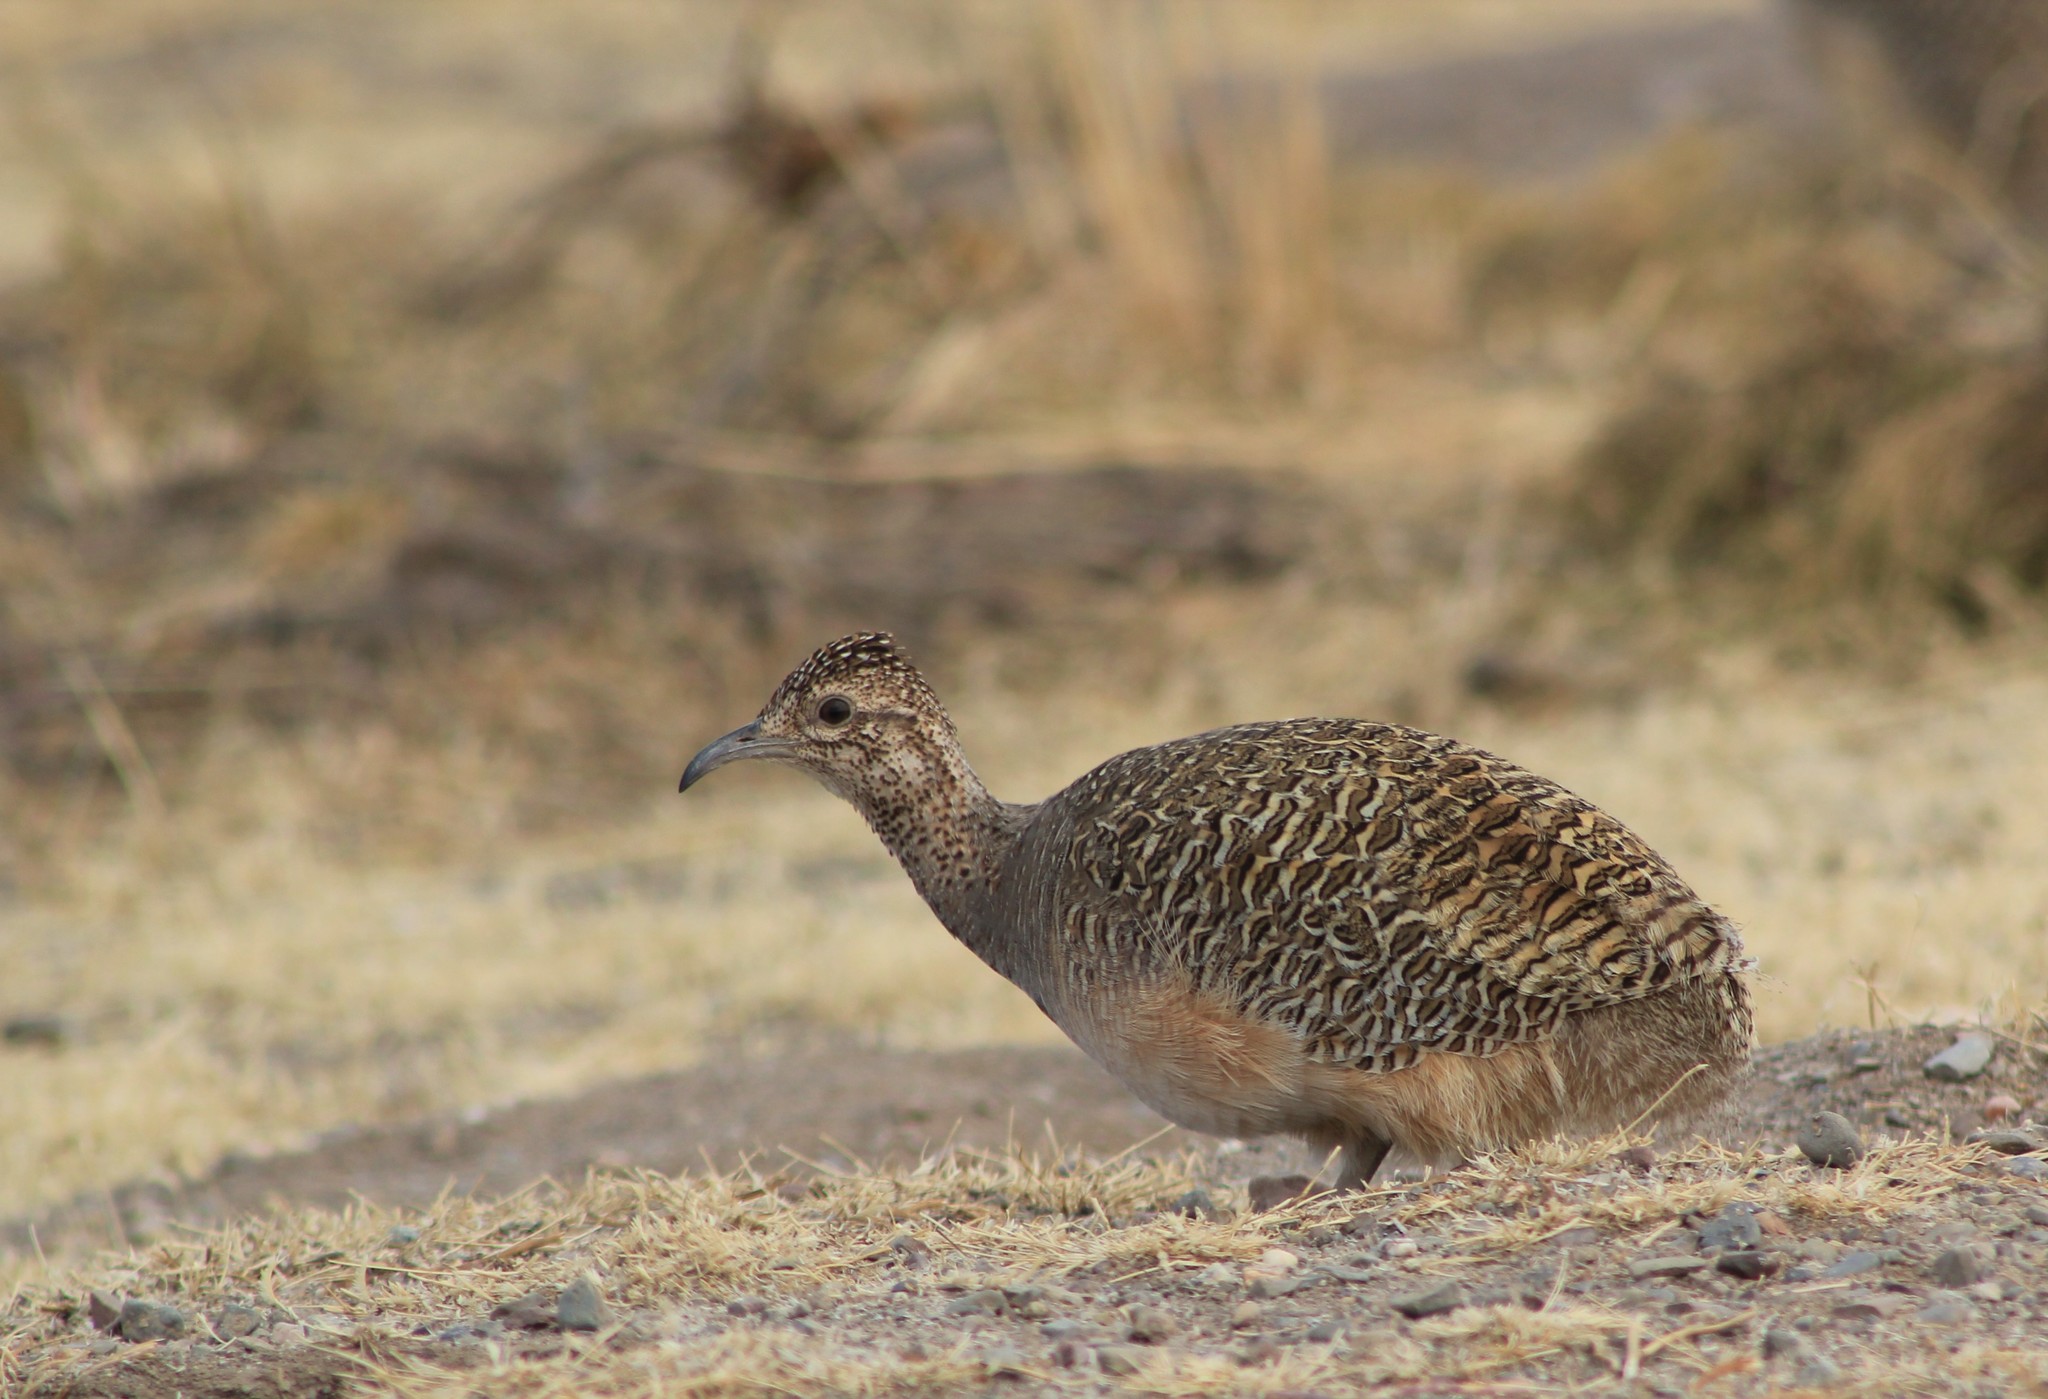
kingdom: Animalia
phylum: Chordata
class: Aves
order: Tinamiformes
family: Tinamidae
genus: Nothoprocta
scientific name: Nothoprocta ornata
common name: Ornate tinamou
